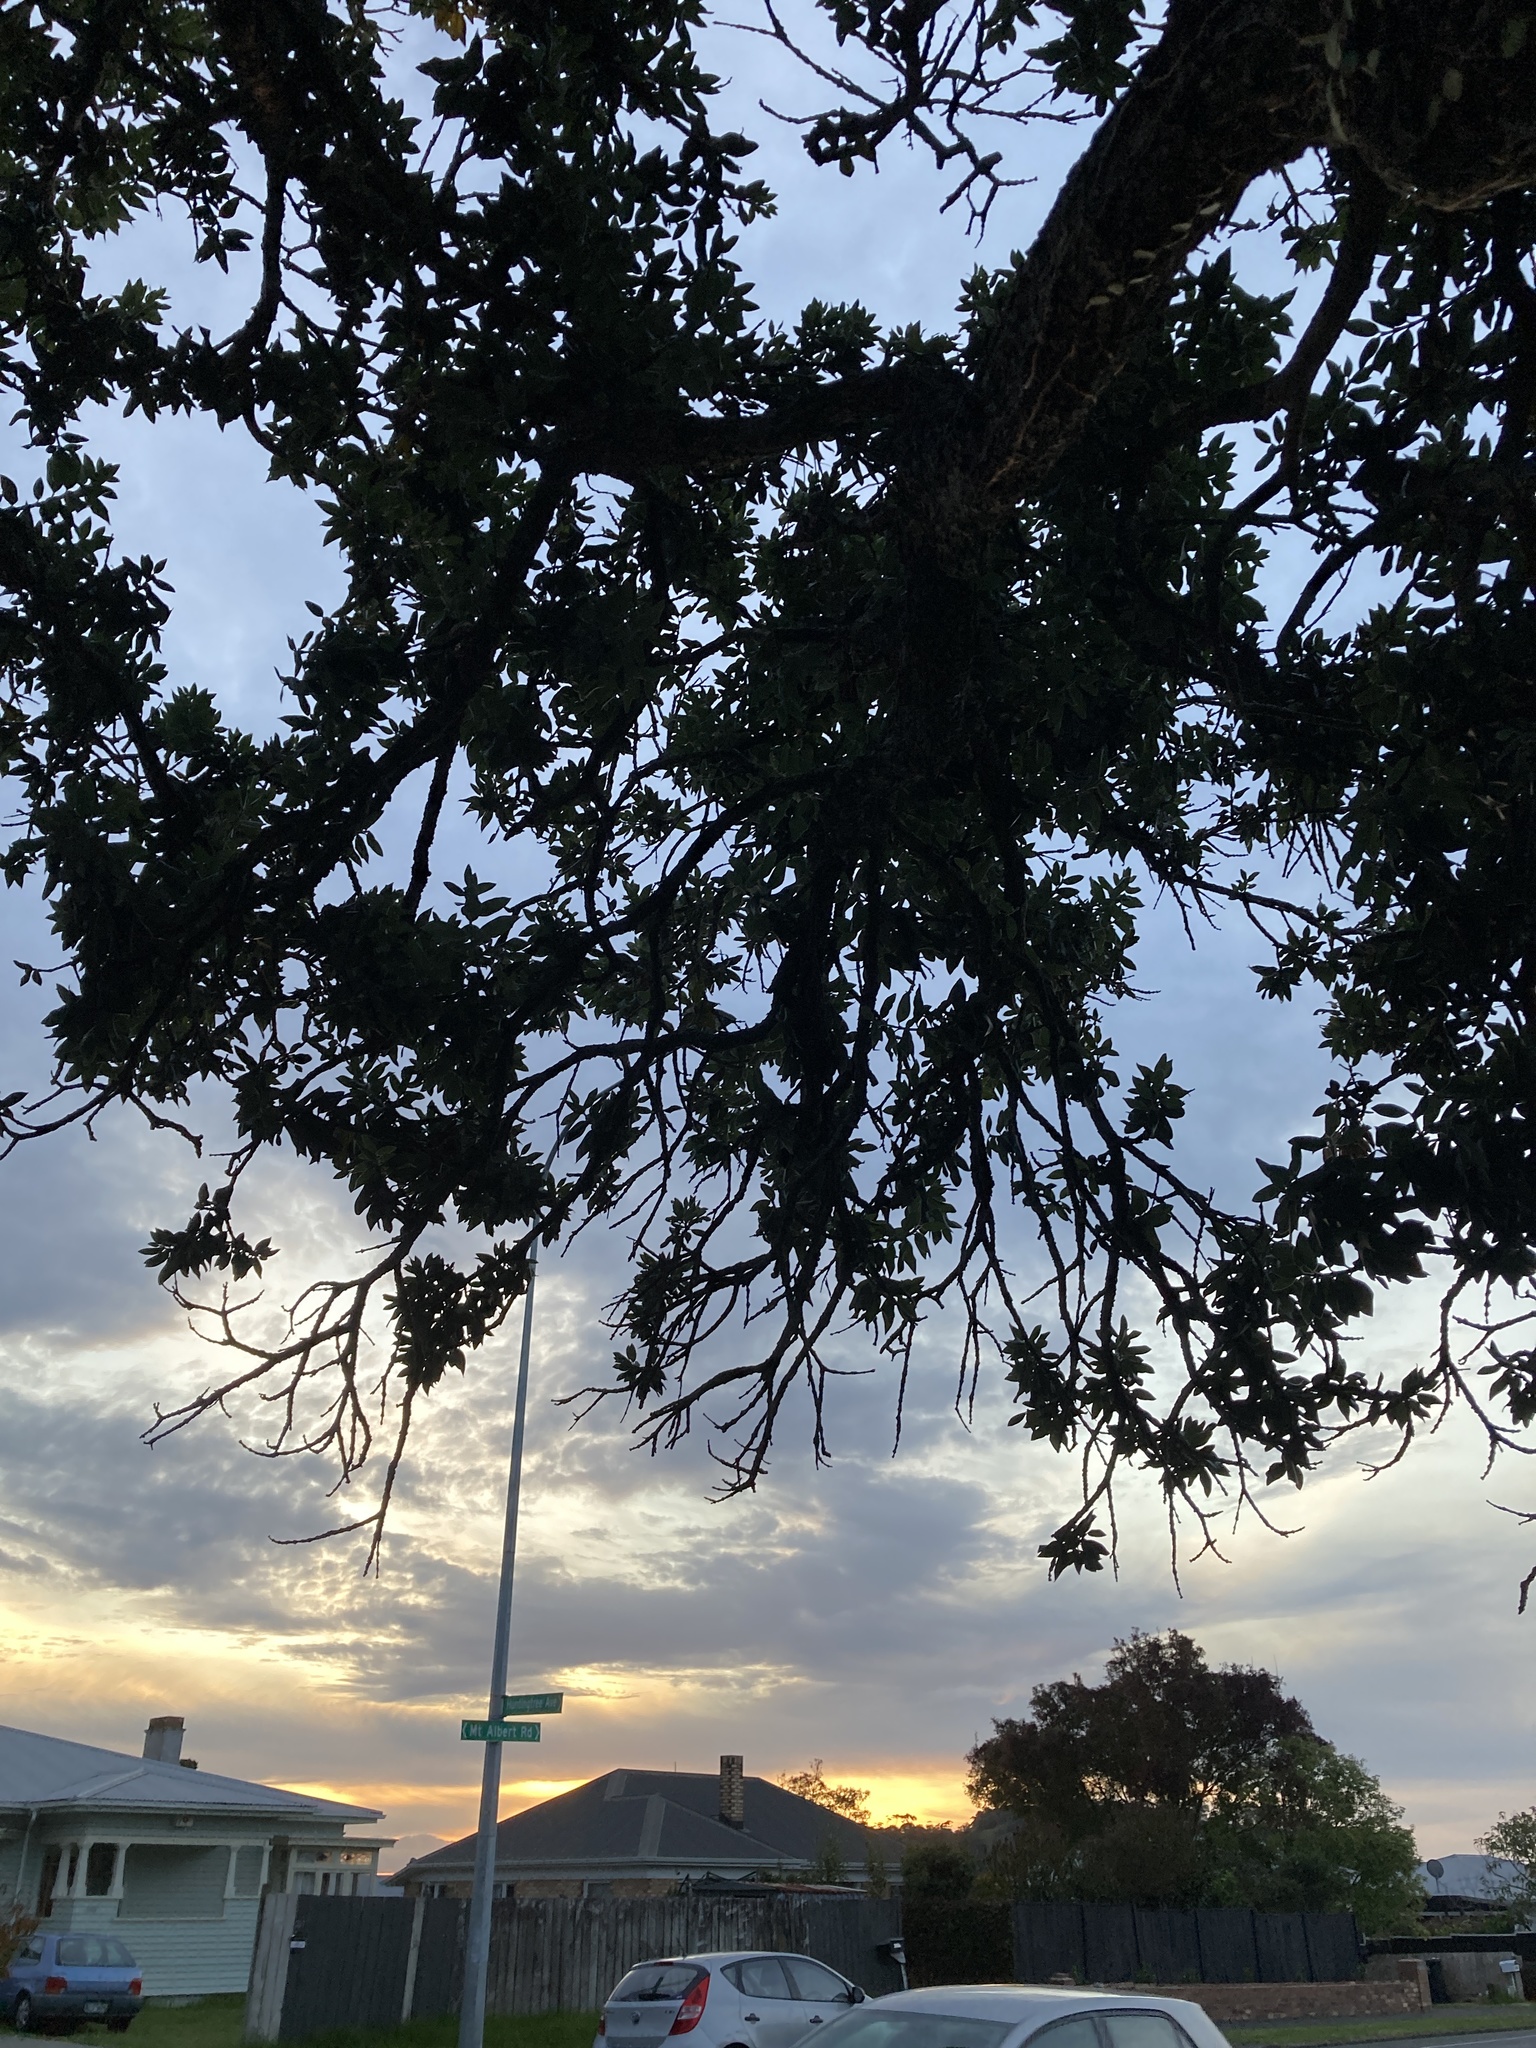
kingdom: Plantae
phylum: Tracheophyta
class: Magnoliopsida
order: Myrtales
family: Myrtaceae
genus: Metrosideros
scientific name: Metrosideros excelsa
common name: New zealand christmastree
